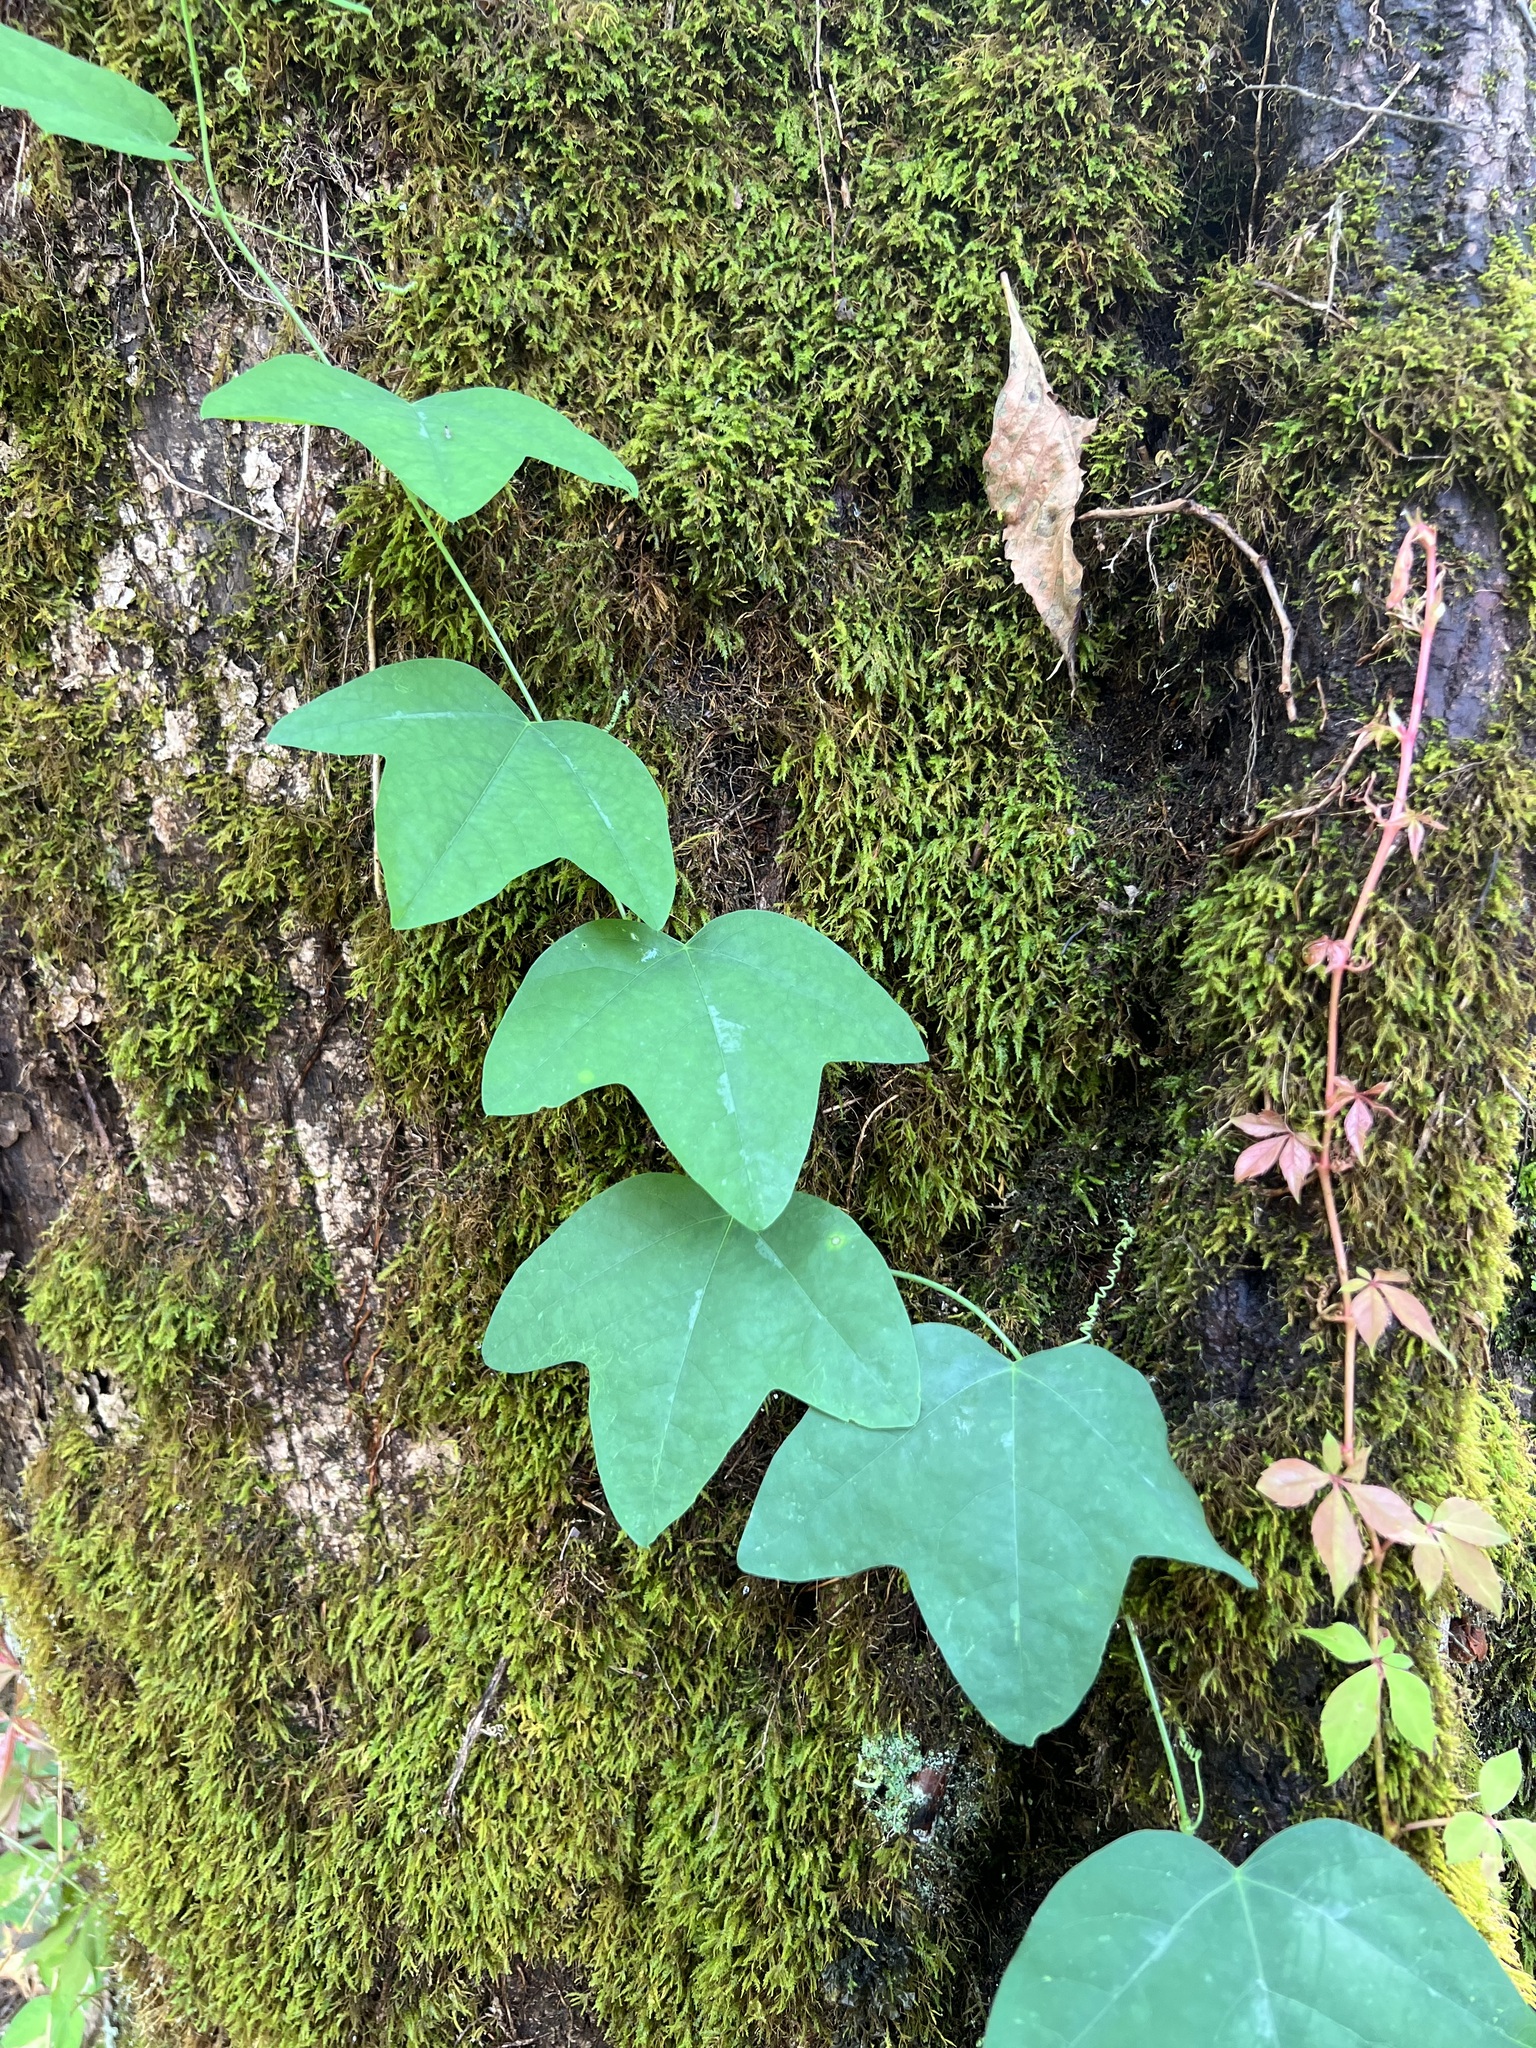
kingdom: Plantae
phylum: Tracheophyta
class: Magnoliopsida
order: Malpighiales
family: Passifloraceae
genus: Passiflora
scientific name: Passiflora lutea
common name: Yellow passionflower
